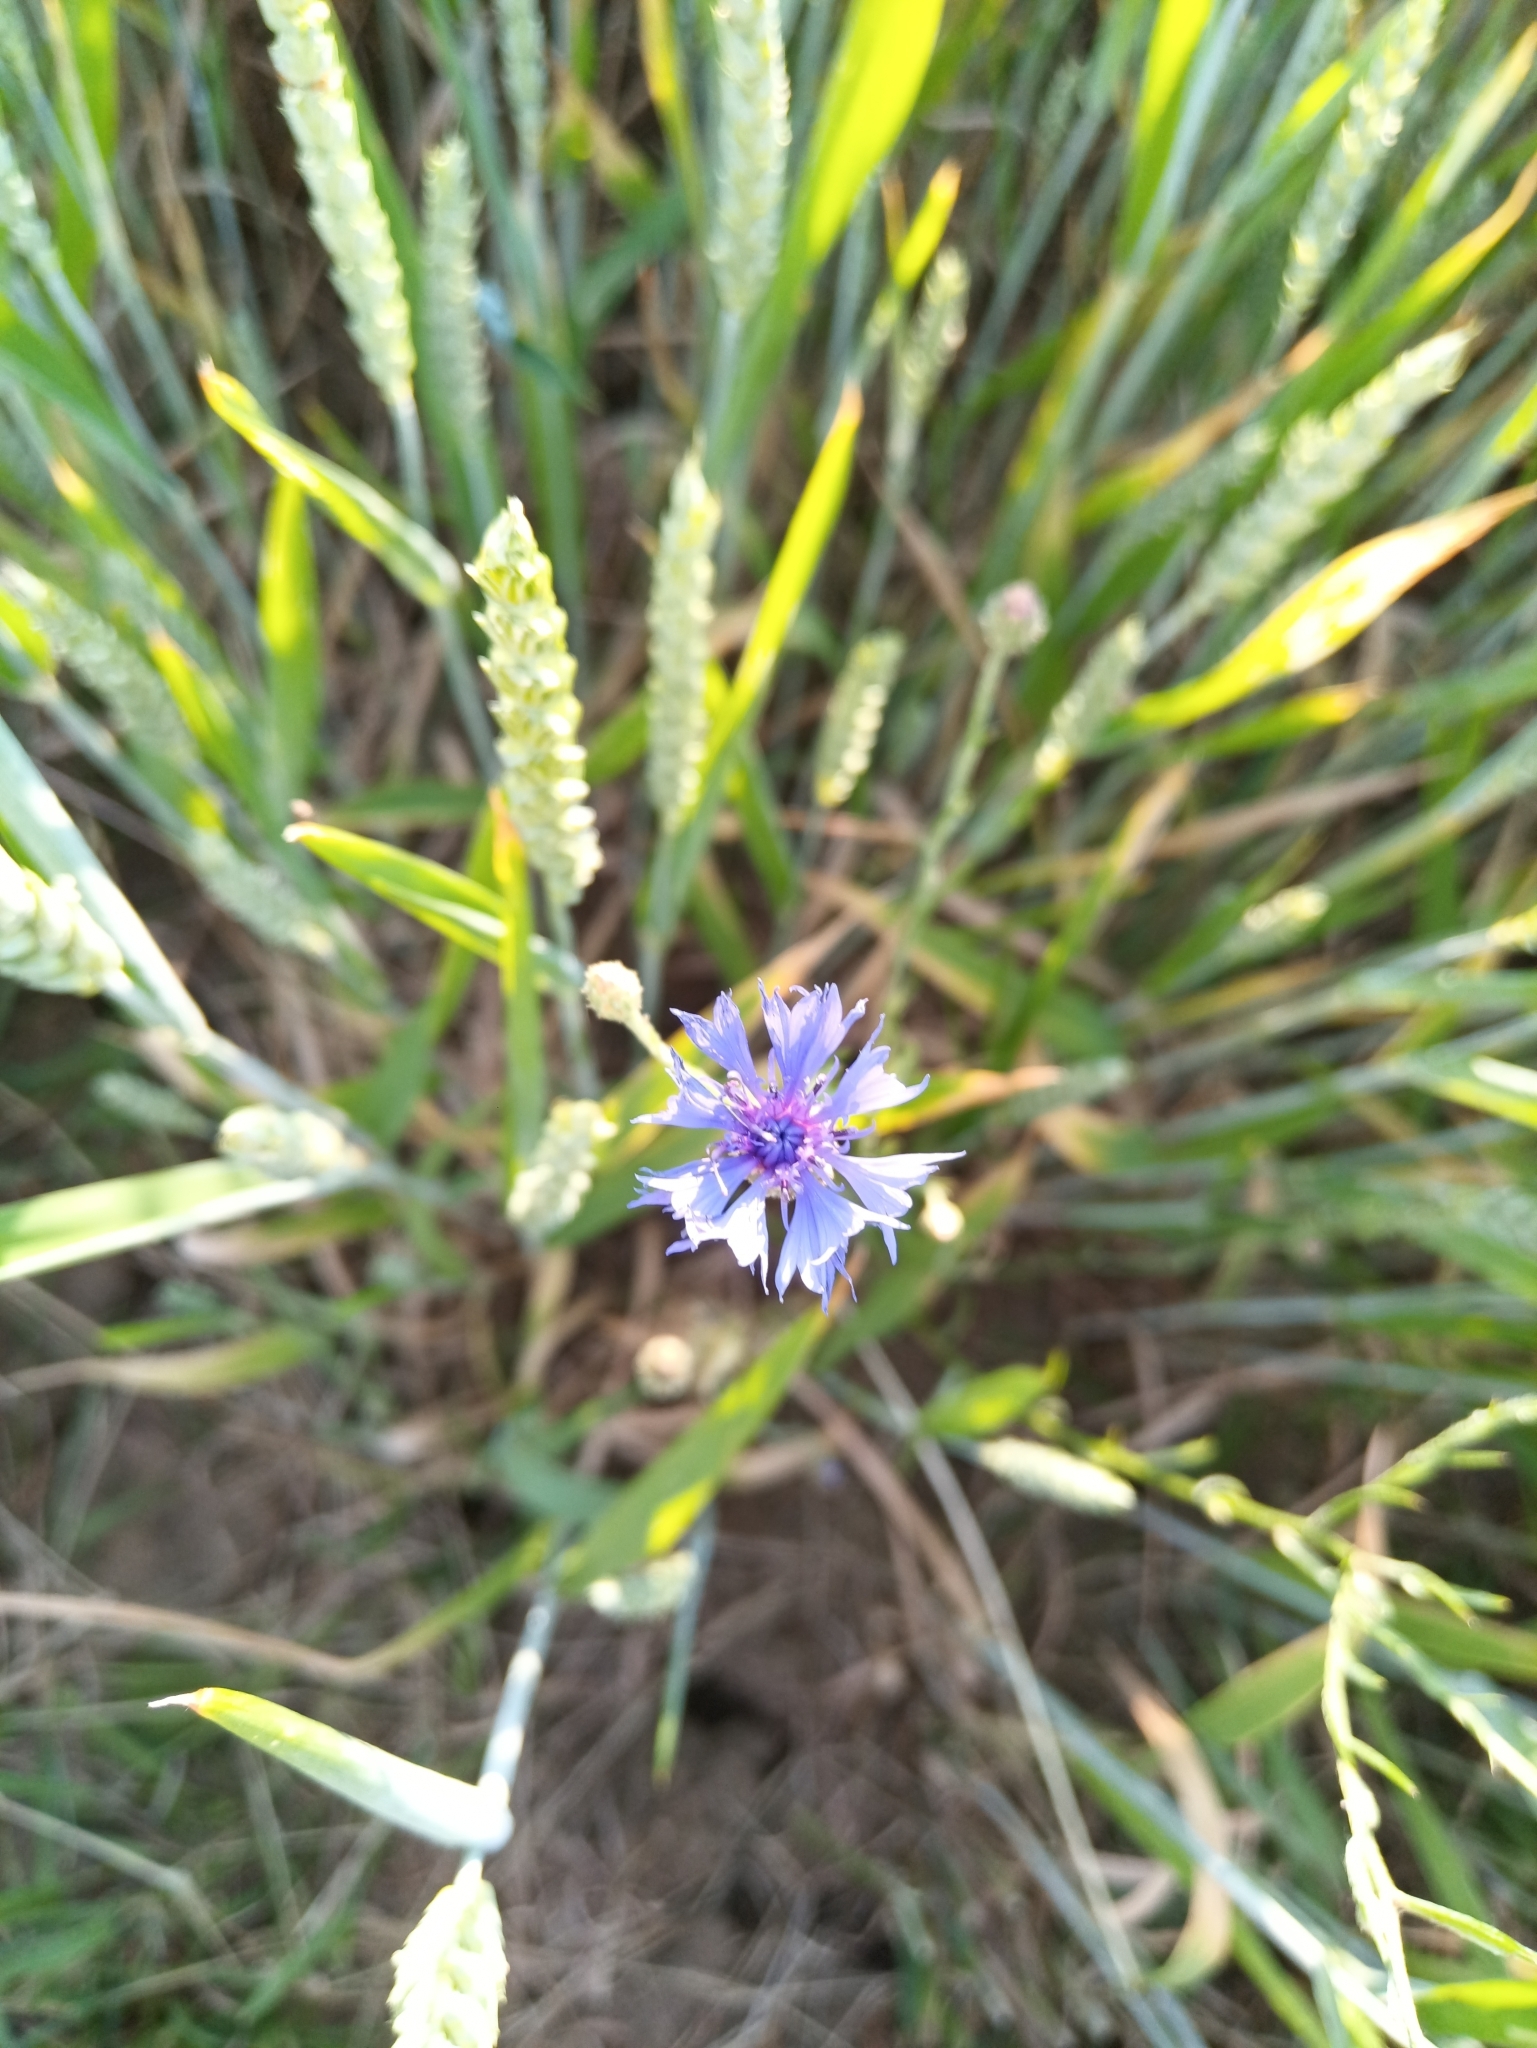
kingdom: Plantae
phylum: Tracheophyta
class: Magnoliopsida
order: Asterales
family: Asteraceae
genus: Centaurea
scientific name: Centaurea cyanus
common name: Cornflower
